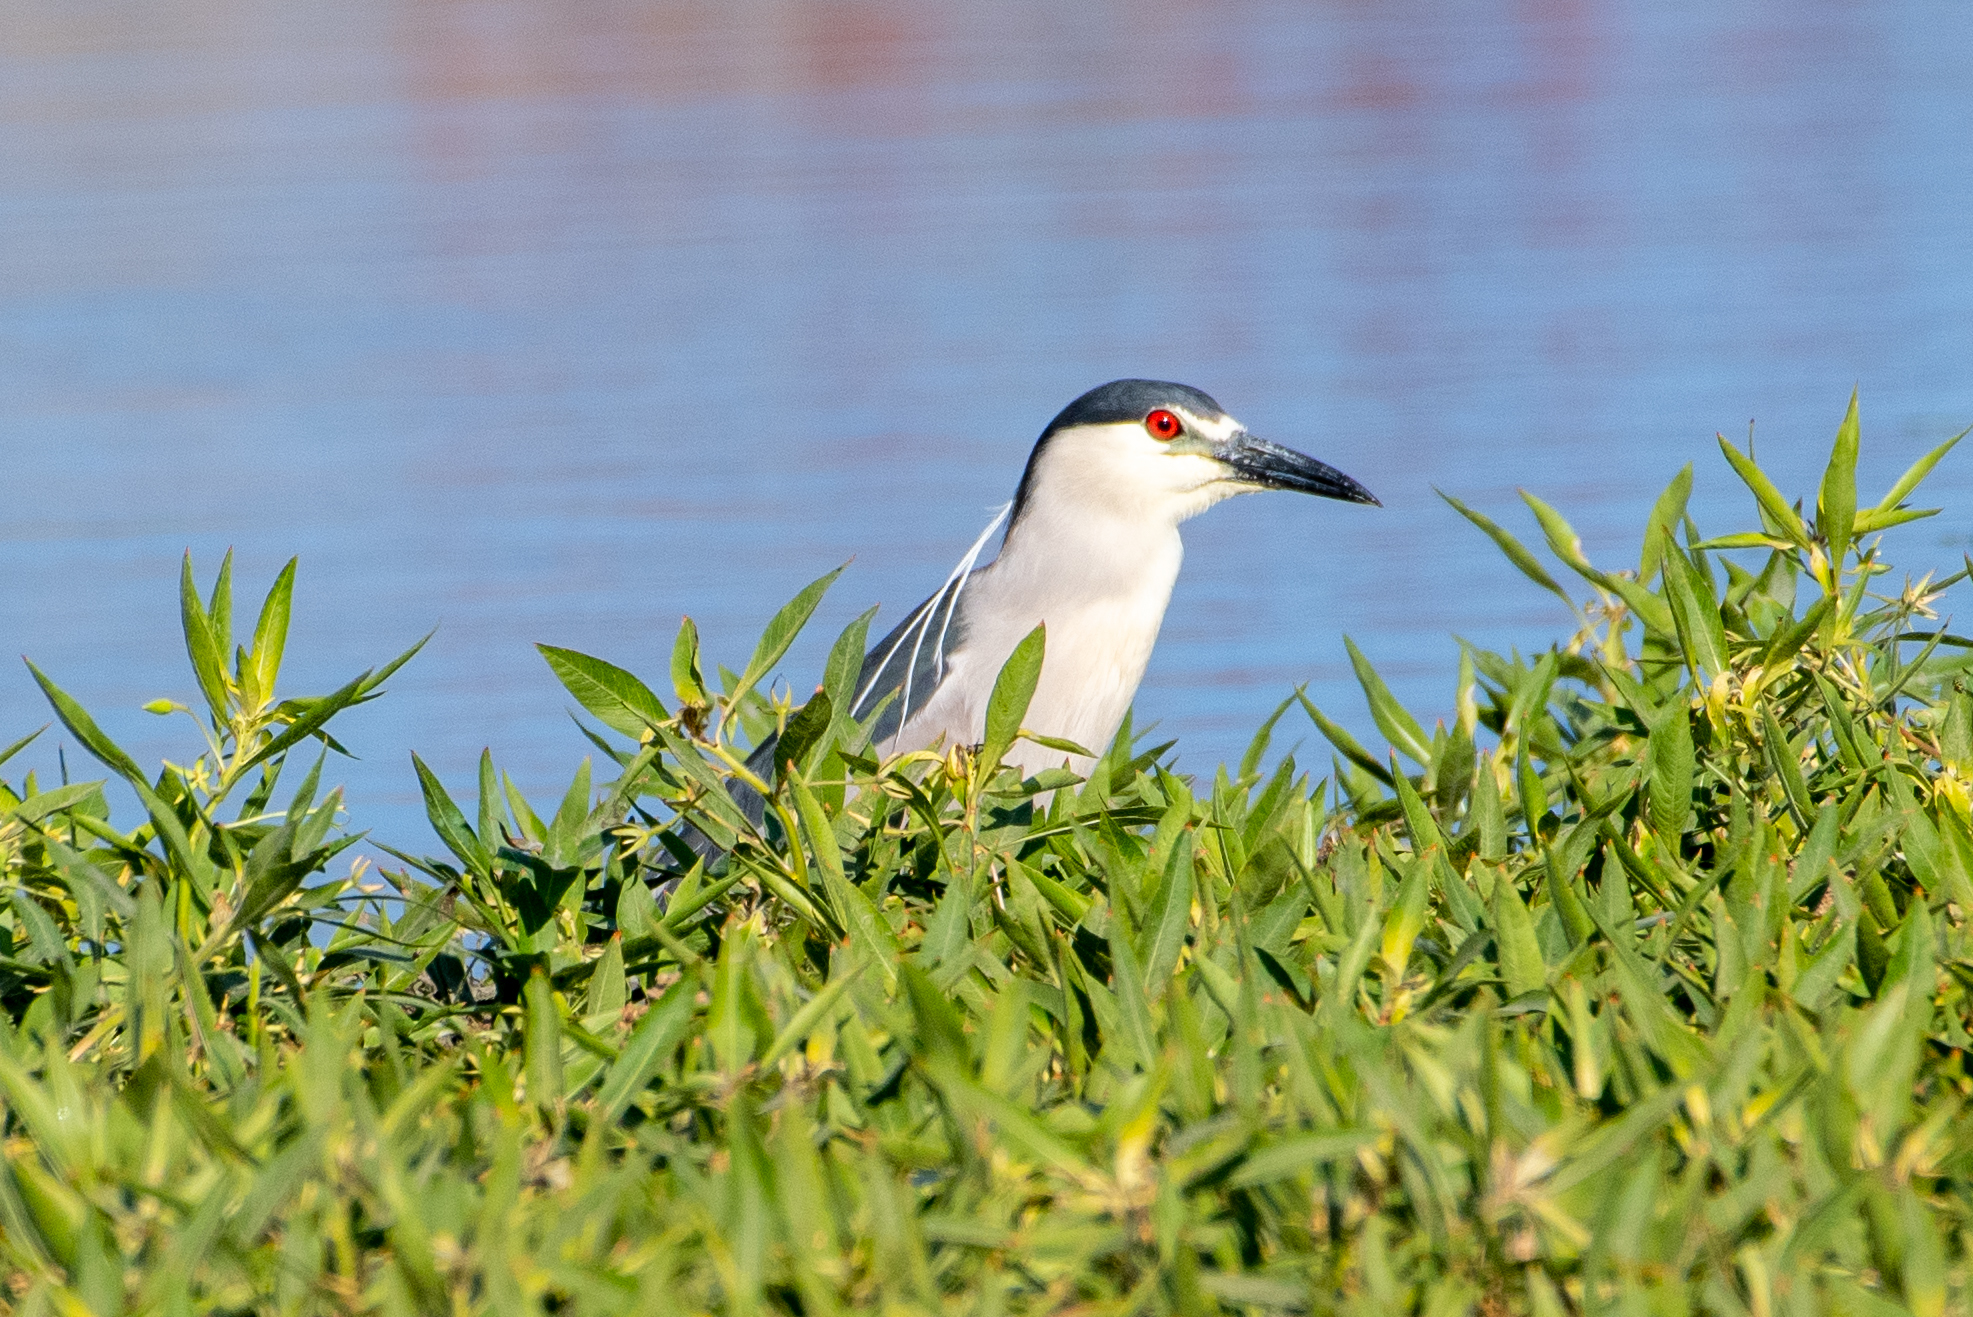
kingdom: Animalia
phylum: Chordata
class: Aves
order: Pelecaniformes
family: Ardeidae
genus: Nycticorax
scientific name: Nycticorax nycticorax
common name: Black-crowned night heron
